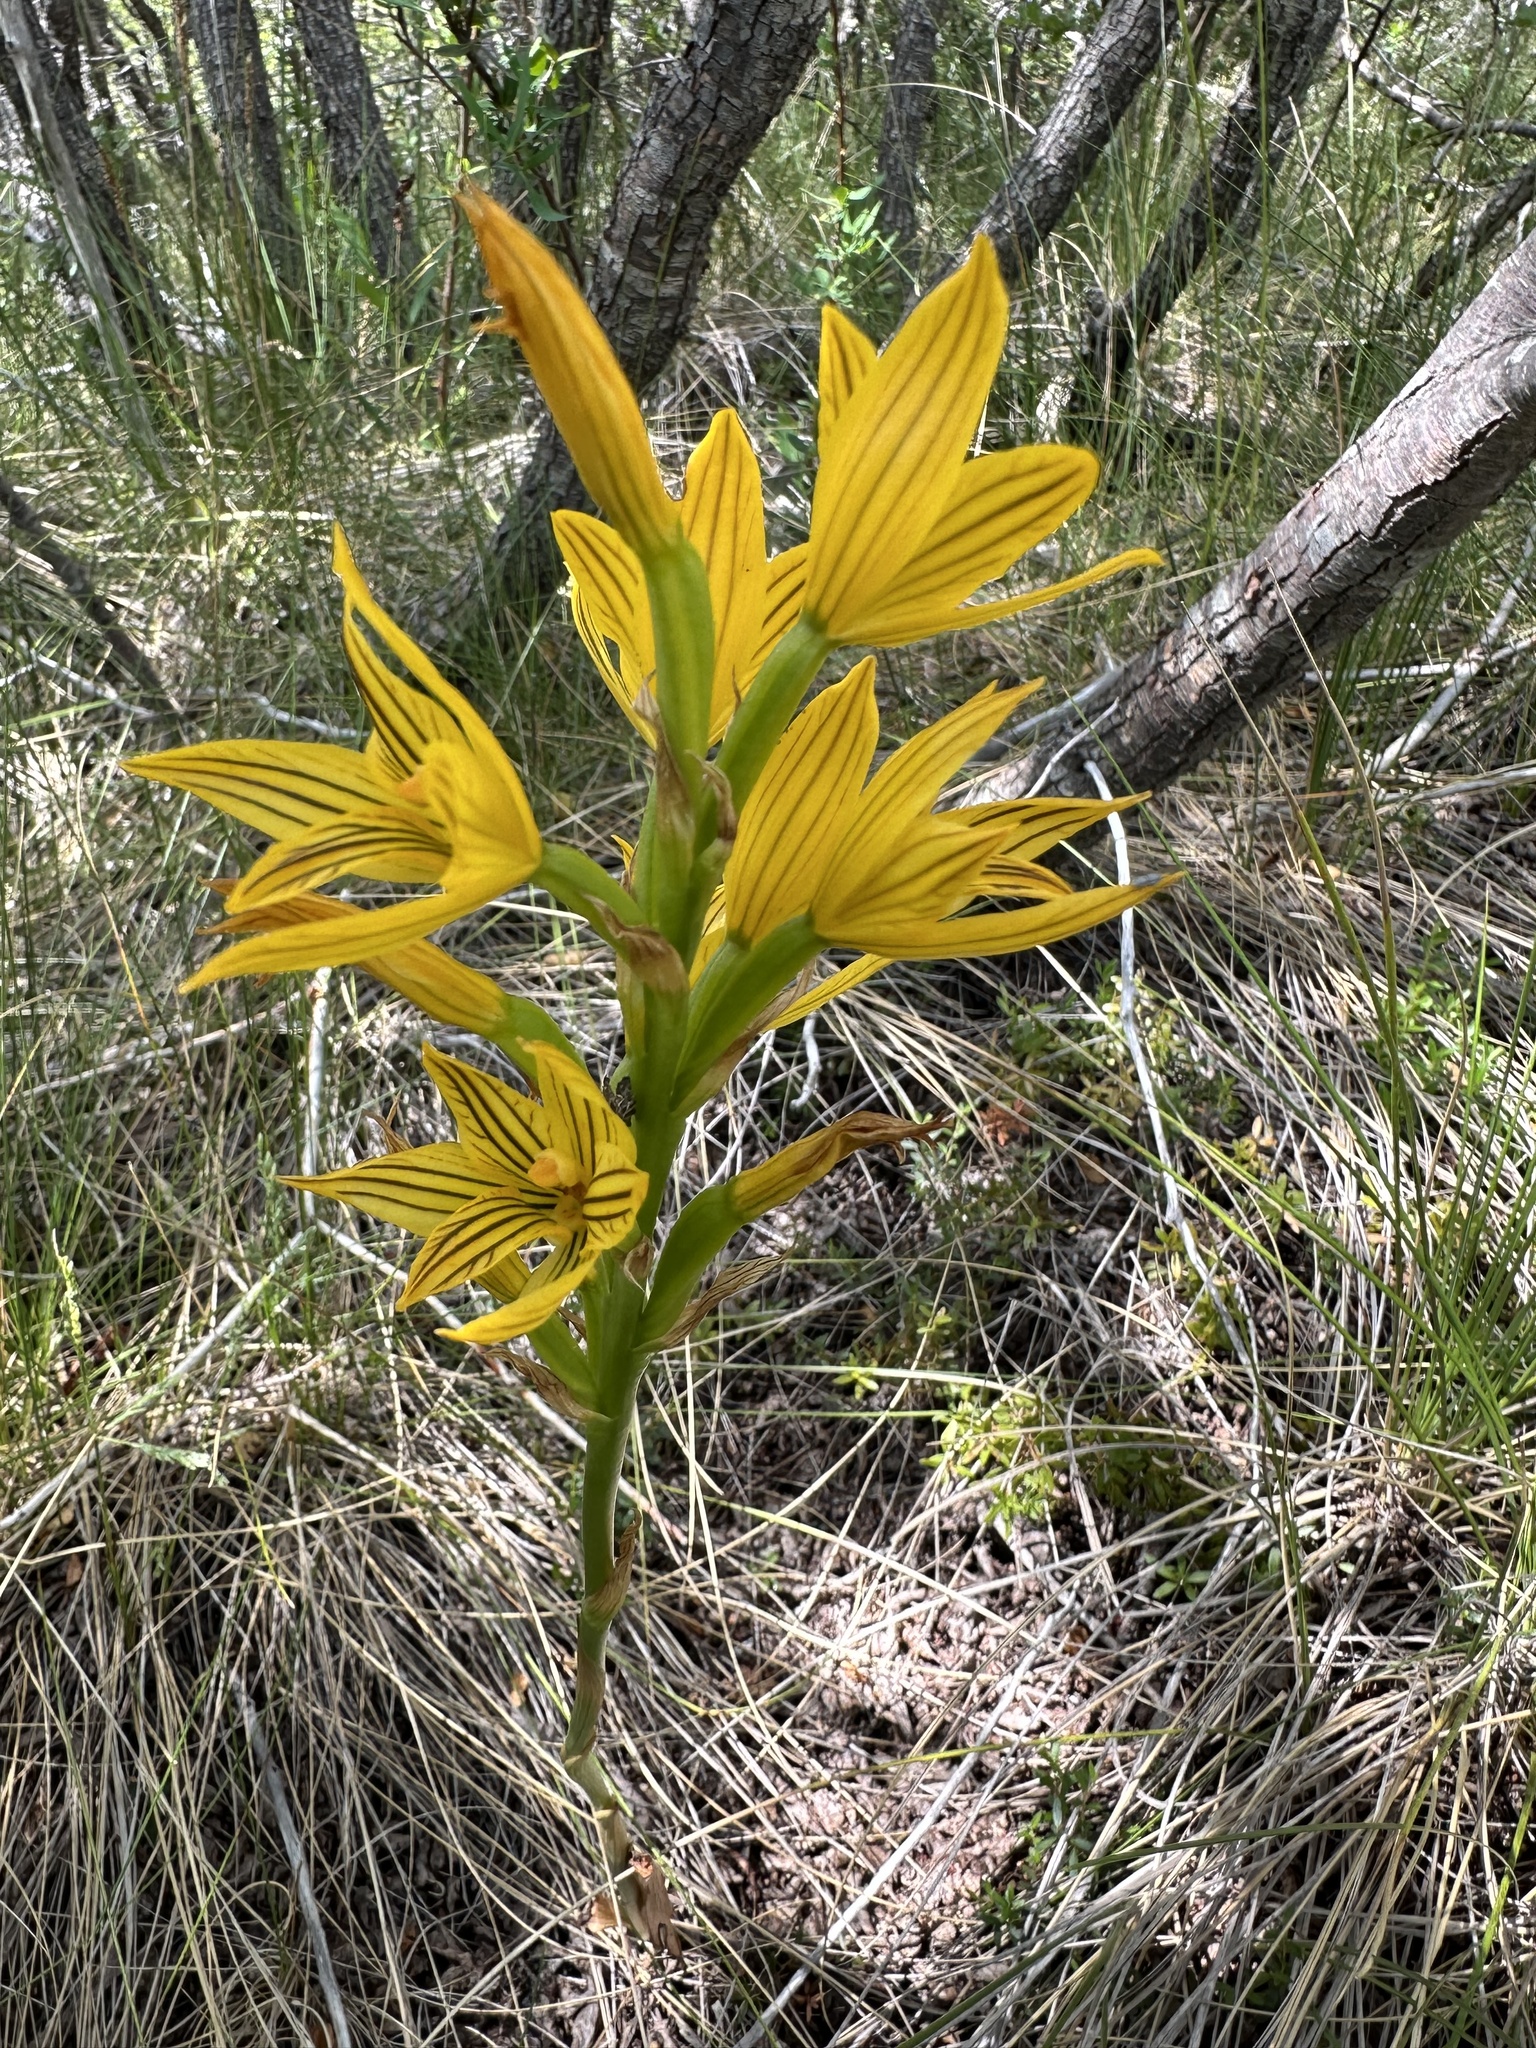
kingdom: Plantae
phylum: Tracheophyta
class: Liliopsida
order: Asparagales
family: Orchidaceae
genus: Chloraea
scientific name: Chloraea nudilabia
